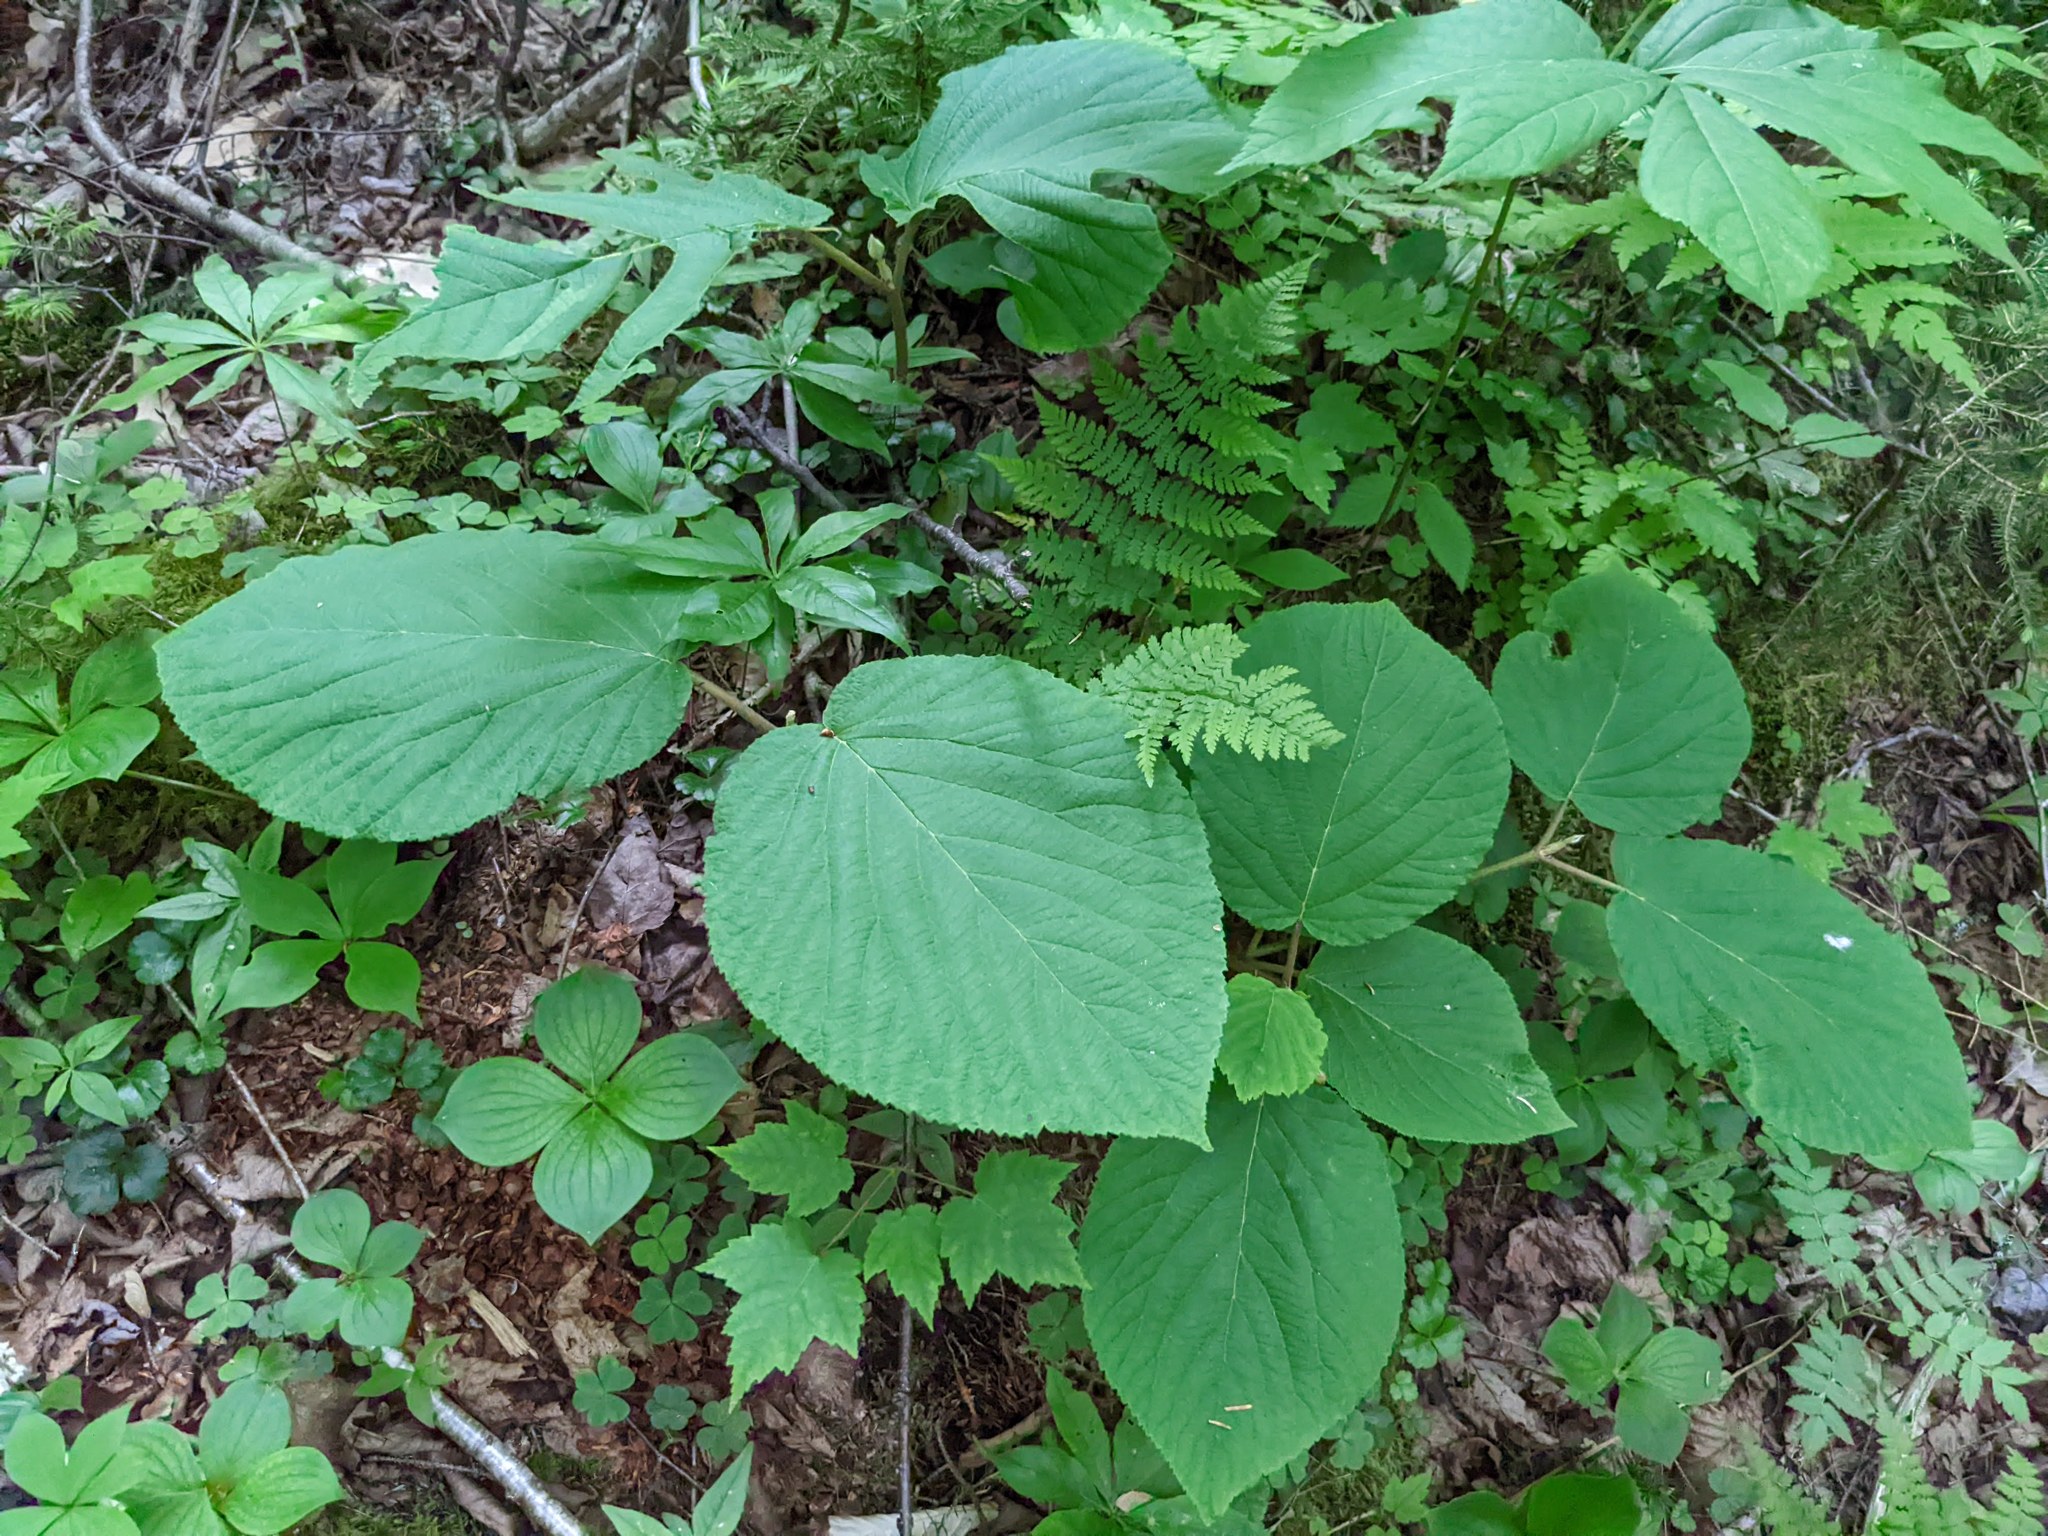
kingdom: Plantae
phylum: Tracheophyta
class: Magnoliopsida
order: Dipsacales
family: Viburnaceae
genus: Viburnum
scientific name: Viburnum lantanoides
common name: Hobblebush
